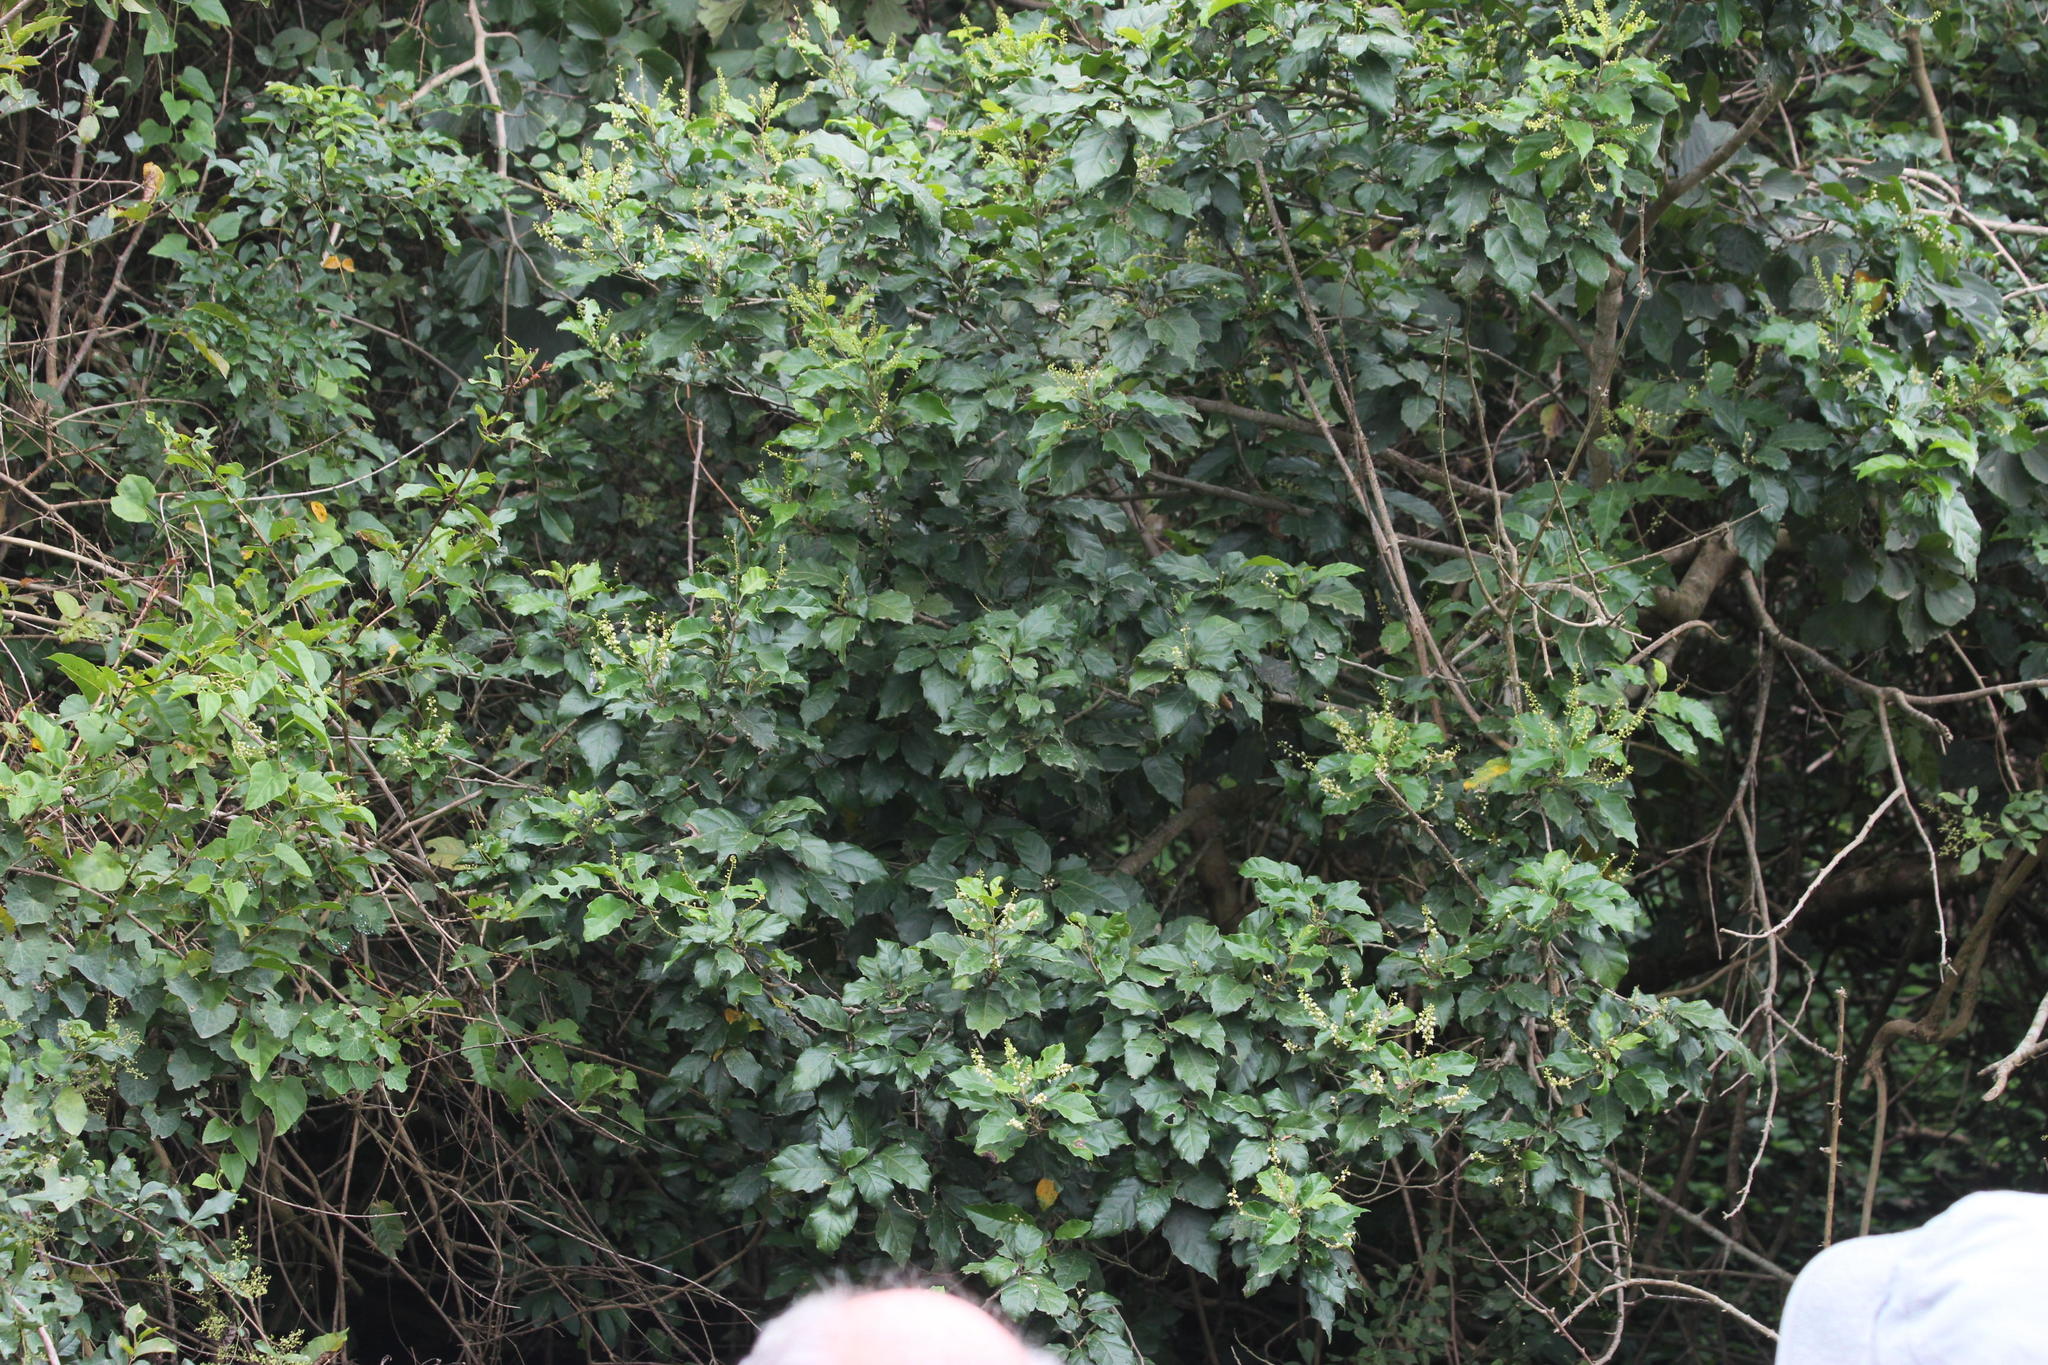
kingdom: Plantae
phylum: Tracheophyta
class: Magnoliopsida
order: Sapindales
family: Sapindaceae
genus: Allophylus
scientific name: Allophylus dregeanus
